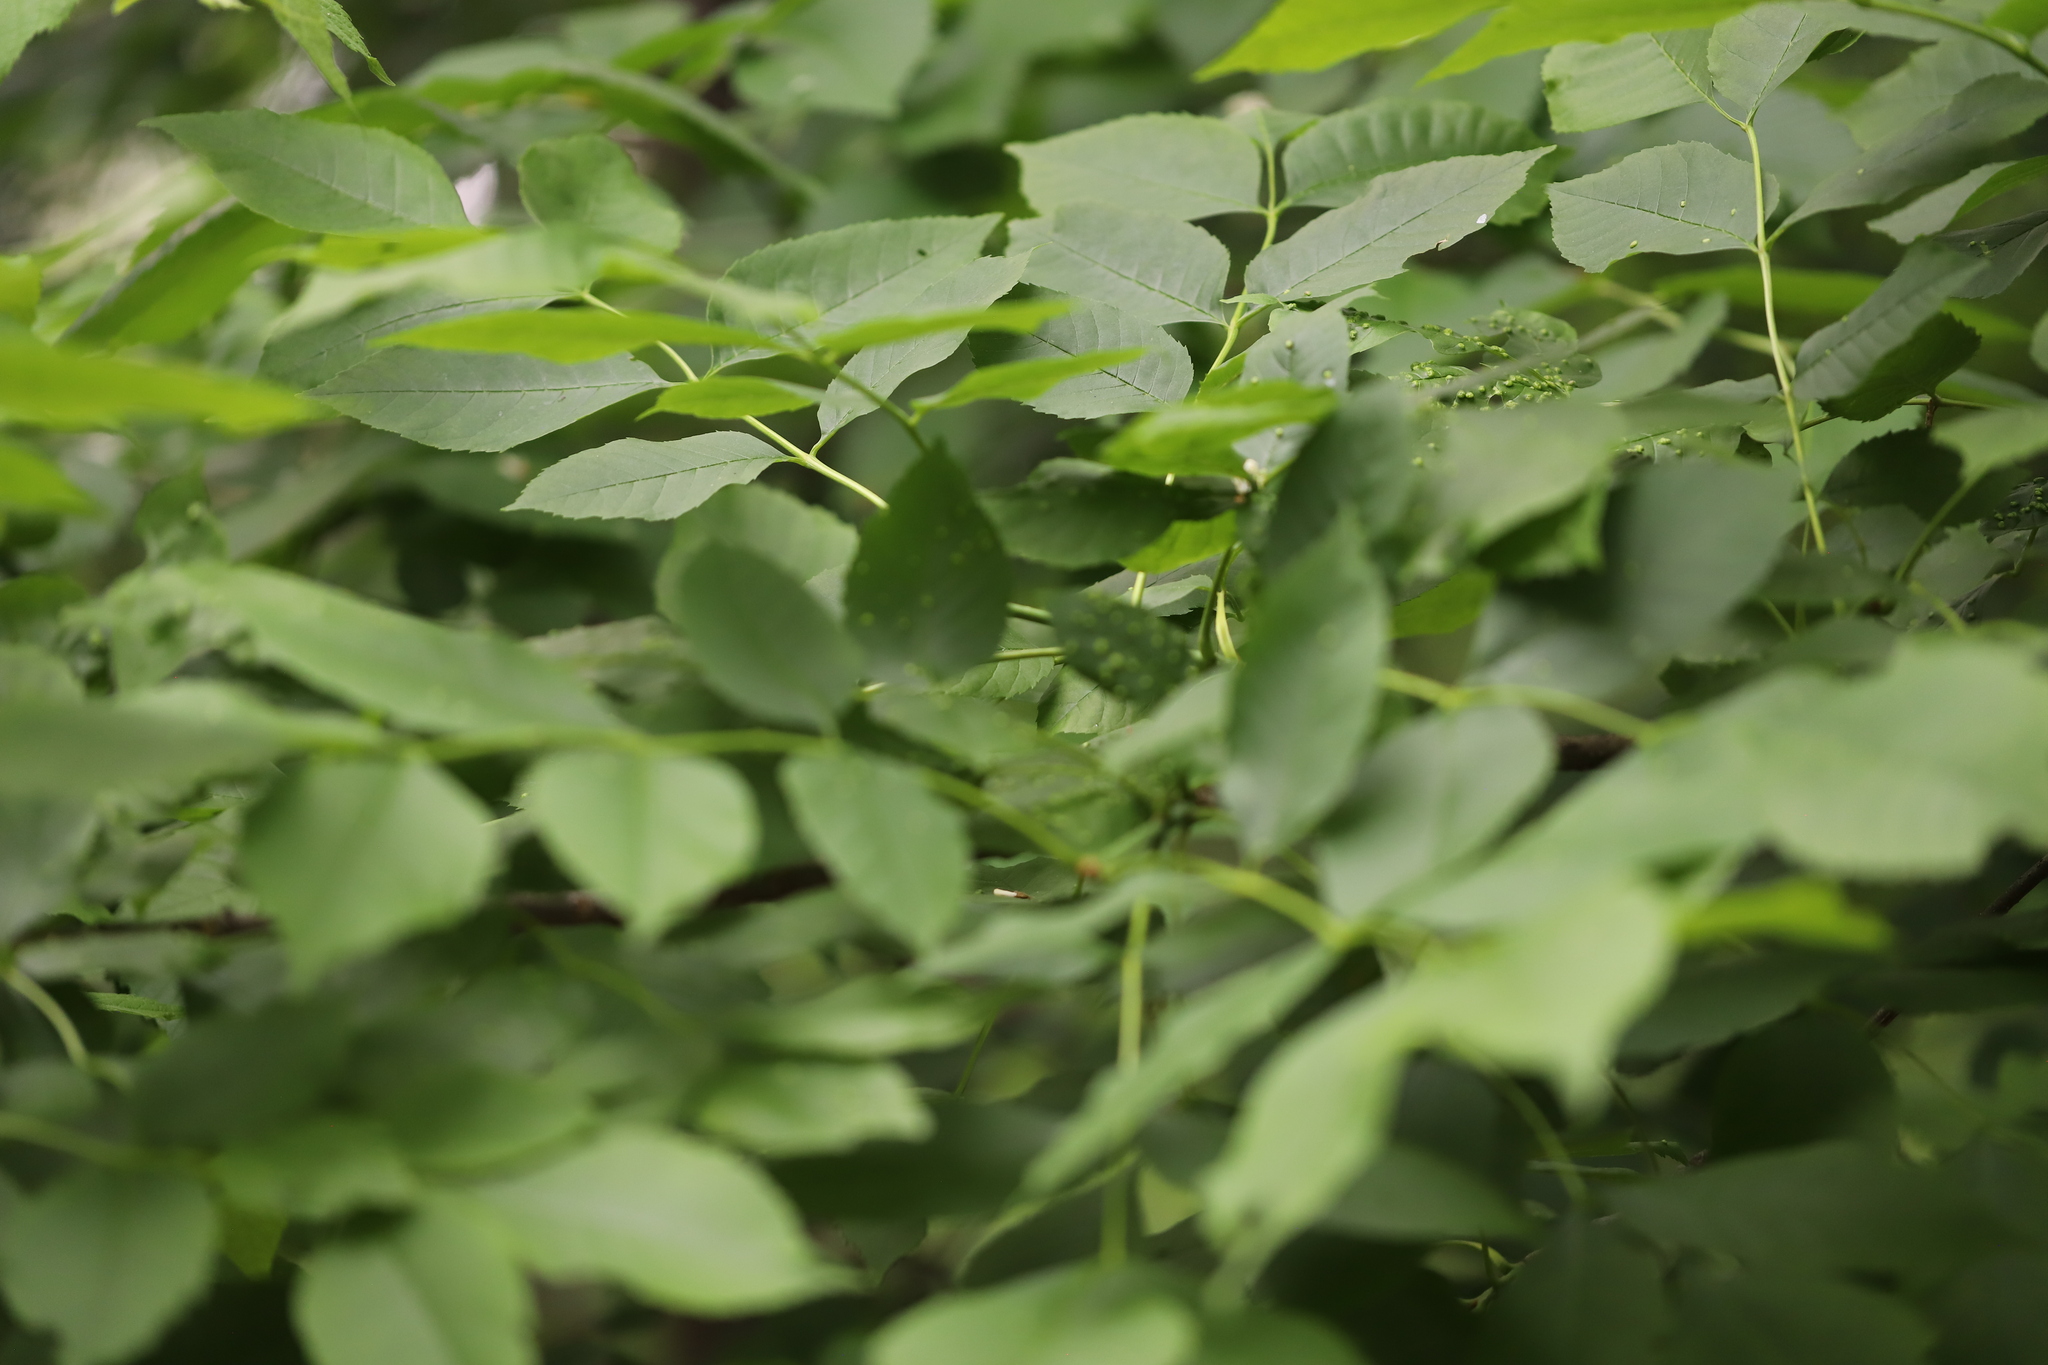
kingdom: Animalia
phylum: Arthropoda
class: Arachnida
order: Trombidiformes
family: Eriophyidae
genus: Aceria
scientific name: Aceria fraxinicola
